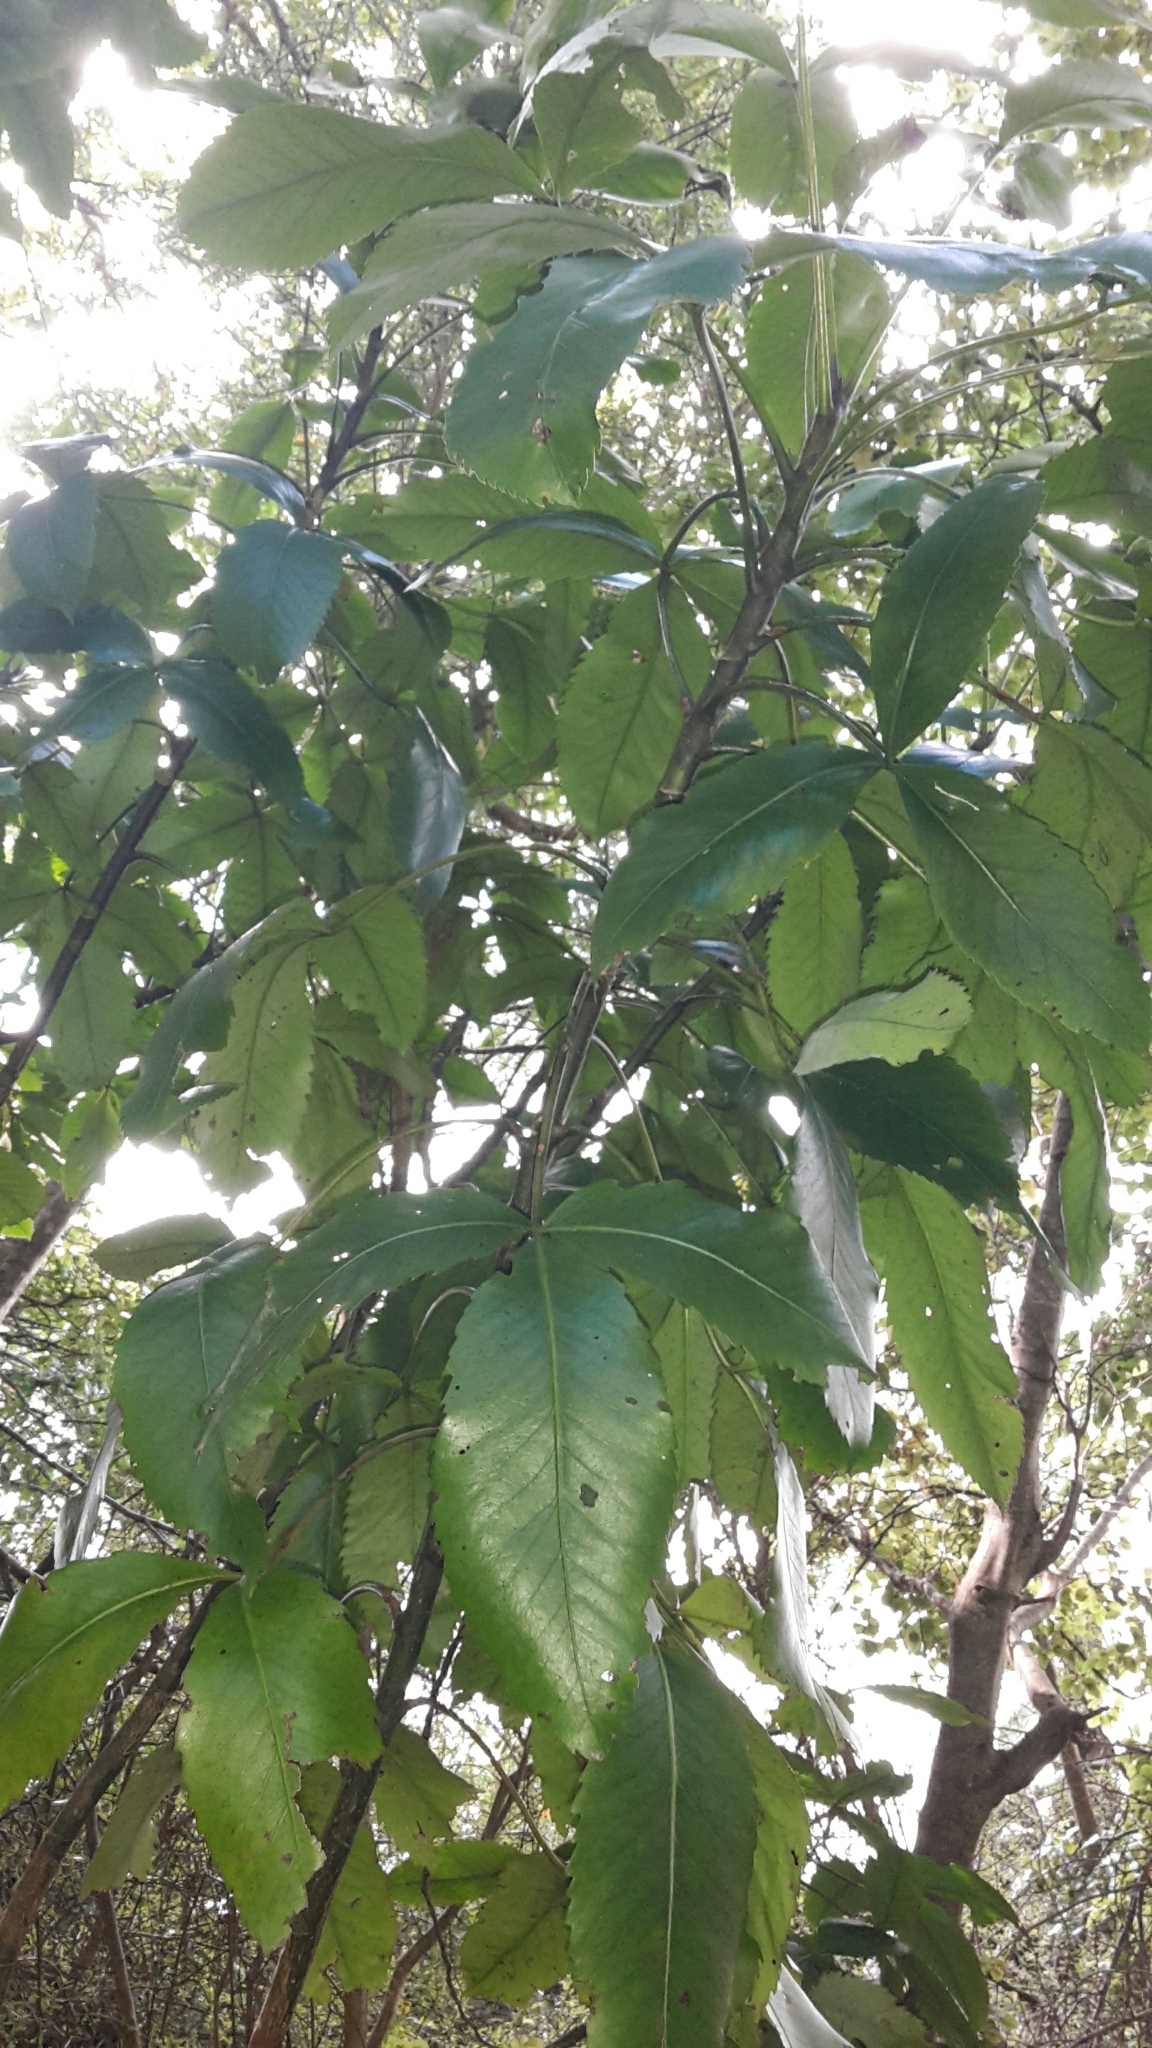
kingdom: Plantae
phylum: Tracheophyta
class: Magnoliopsida
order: Apiales
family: Araliaceae
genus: Neopanax
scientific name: Neopanax colensoi
